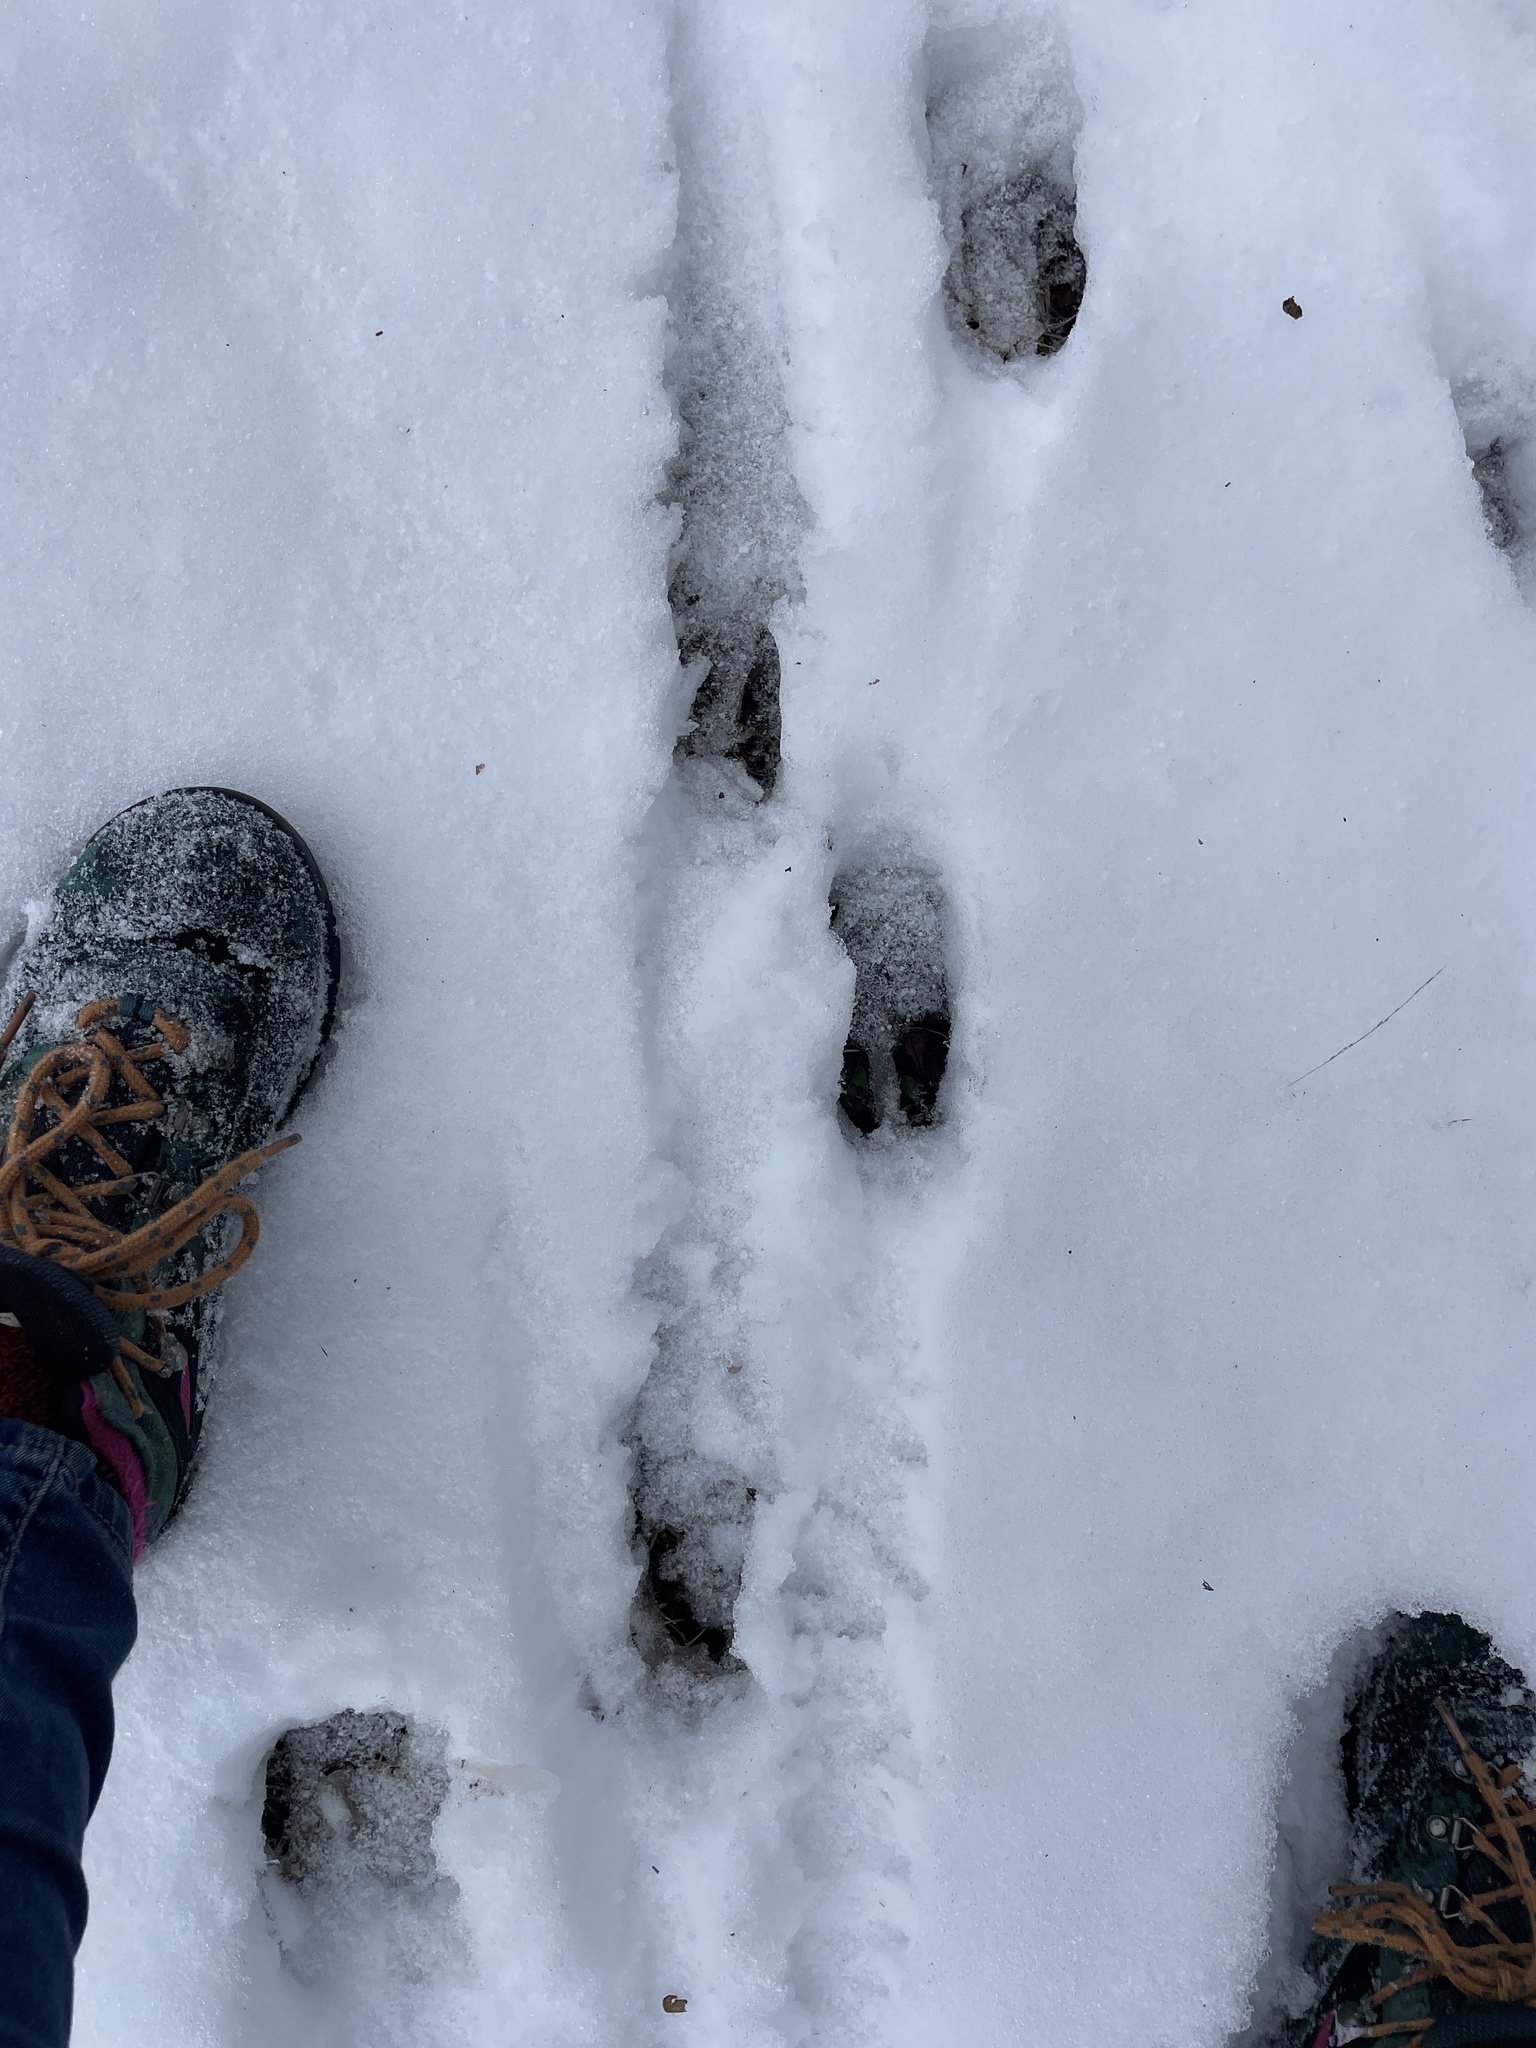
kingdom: Animalia
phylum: Chordata
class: Mammalia
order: Artiodactyla
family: Cervidae
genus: Odocoileus
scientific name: Odocoileus virginianus
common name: White-tailed deer
